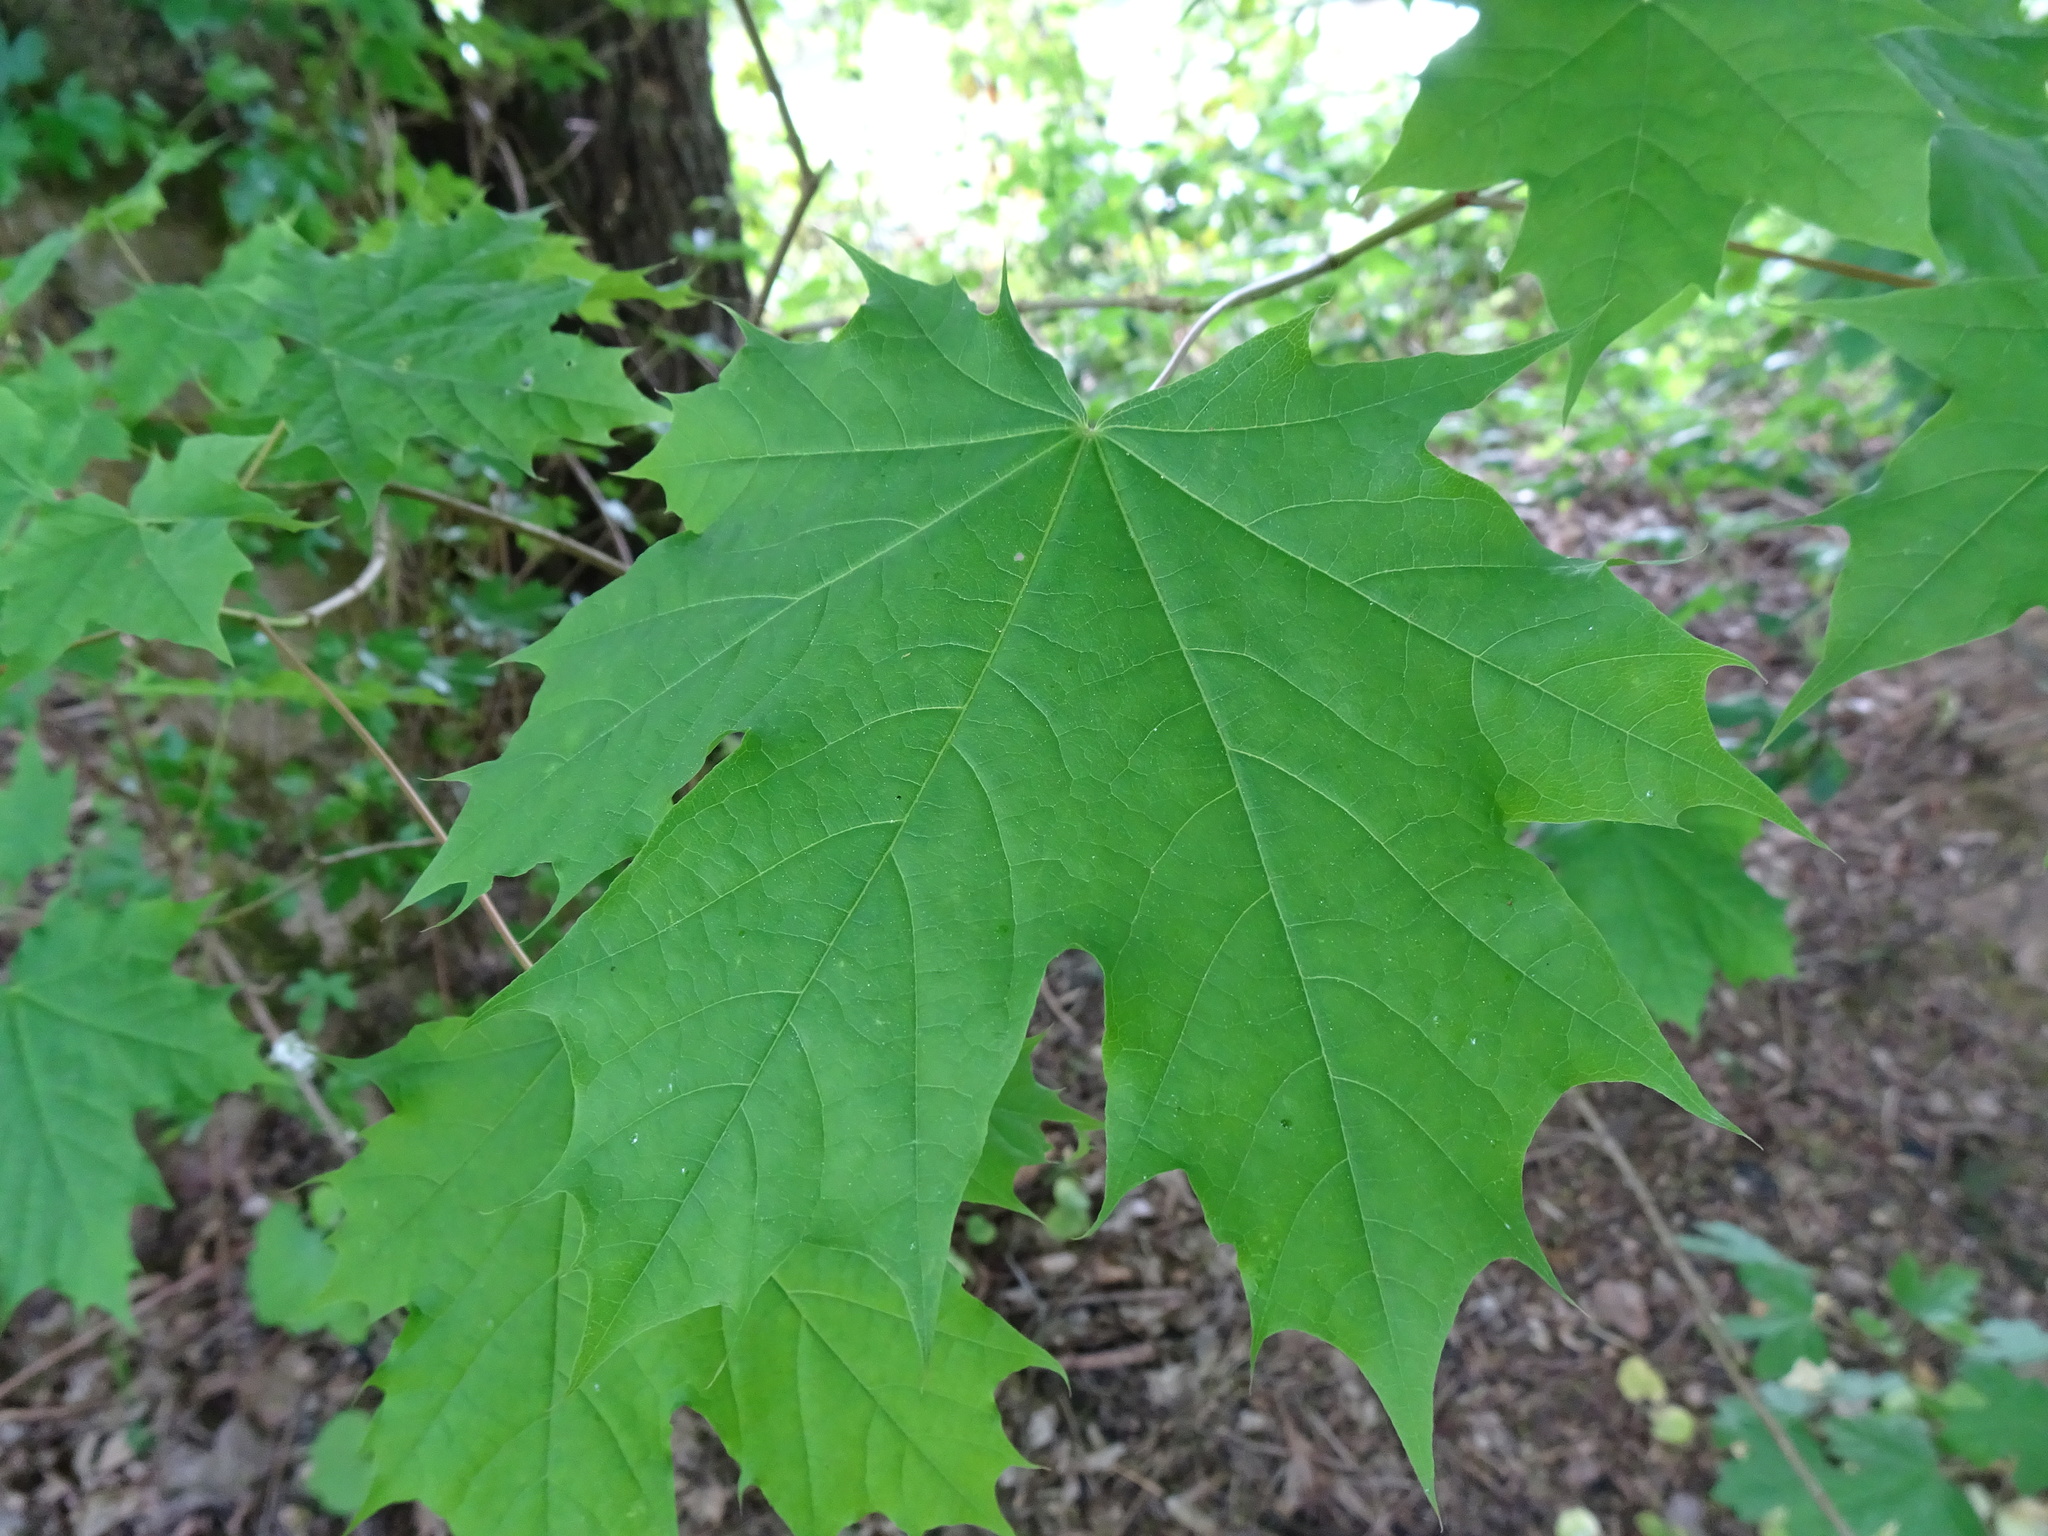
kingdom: Plantae
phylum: Tracheophyta
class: Magnoliopsida
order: Sapindales
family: Sapindaceae
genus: Acer
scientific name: Acer platanoides
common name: Norway maple
